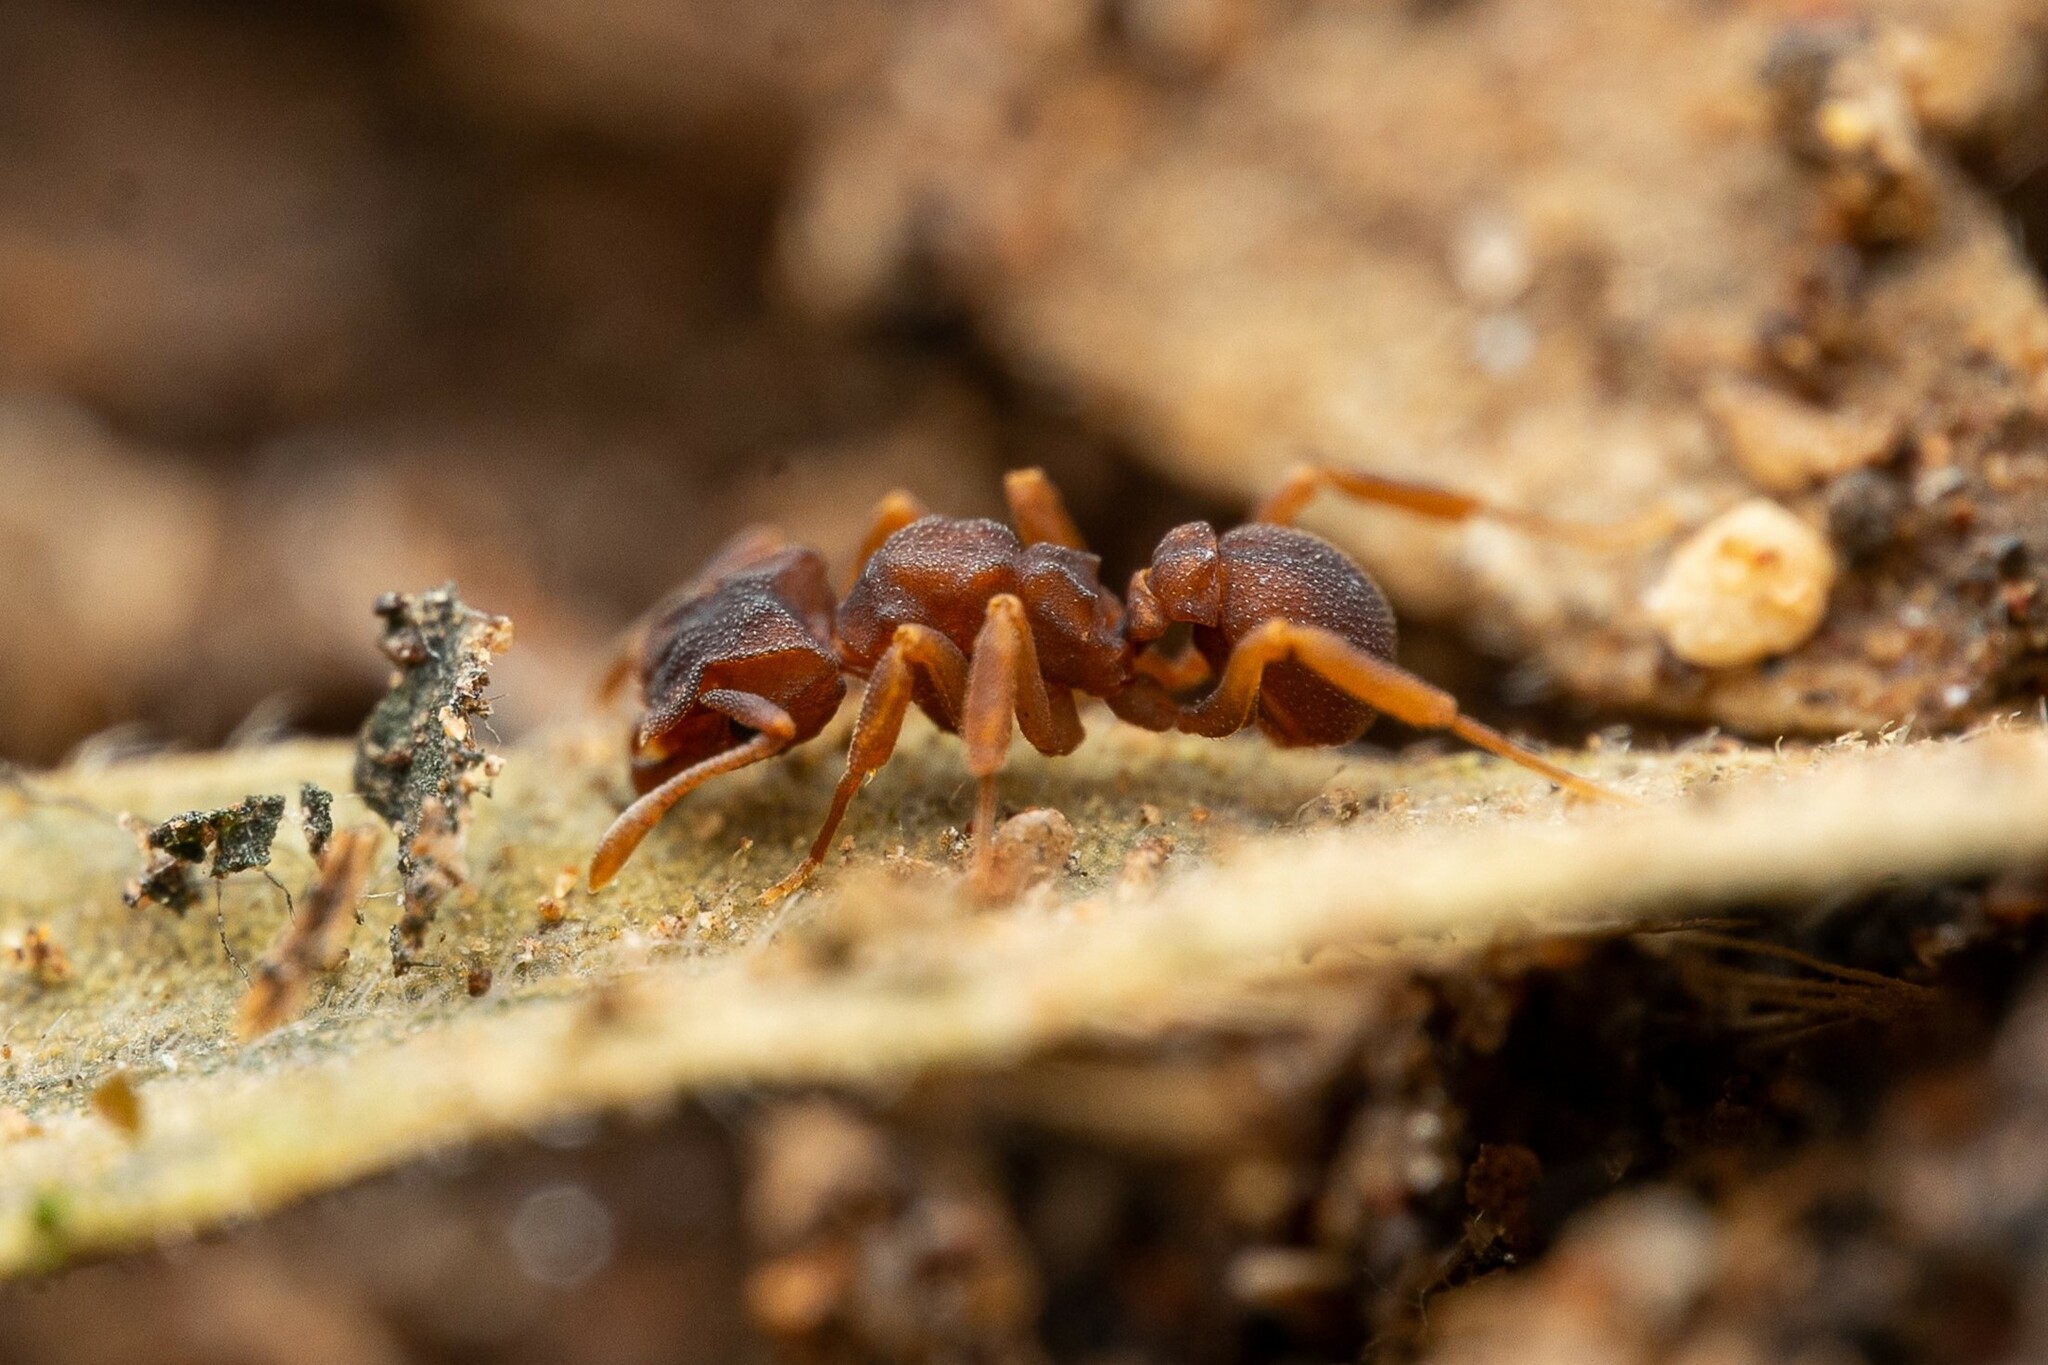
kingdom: Animalia
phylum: Arthropoda
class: Insecta
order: Hymenoptera
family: Formicidae
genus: Cyphomyrmex
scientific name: Cyphomyrmex flavidus
